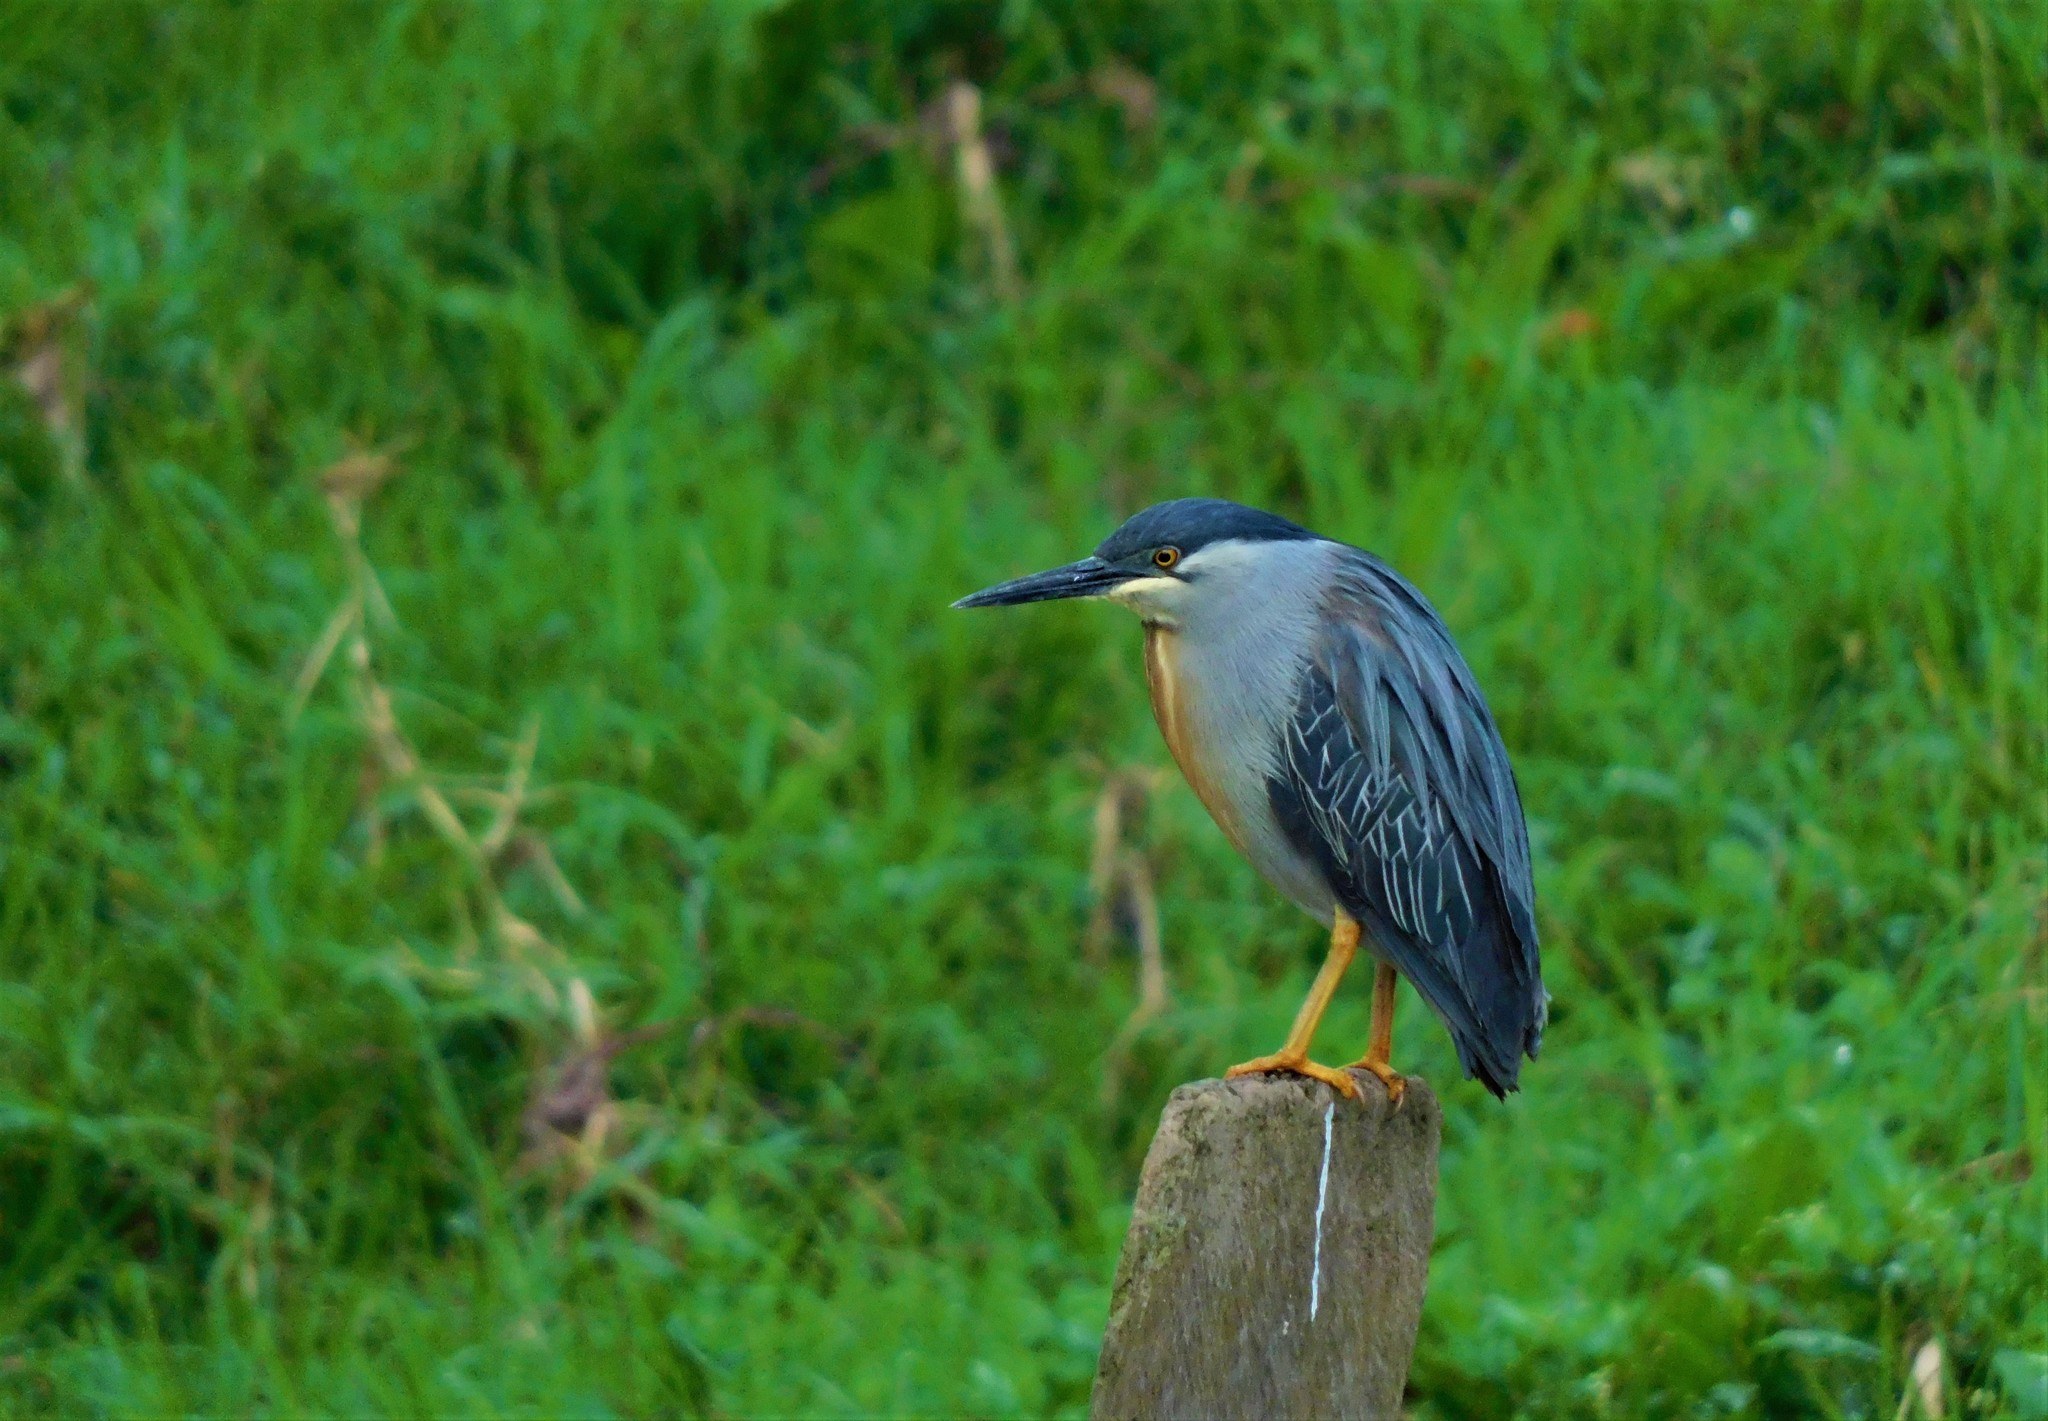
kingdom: Animalia
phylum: Chordata
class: Aves
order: Pelecaniformes
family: Ardeidae
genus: Butorides
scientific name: Butorides striata
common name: Striated heron
